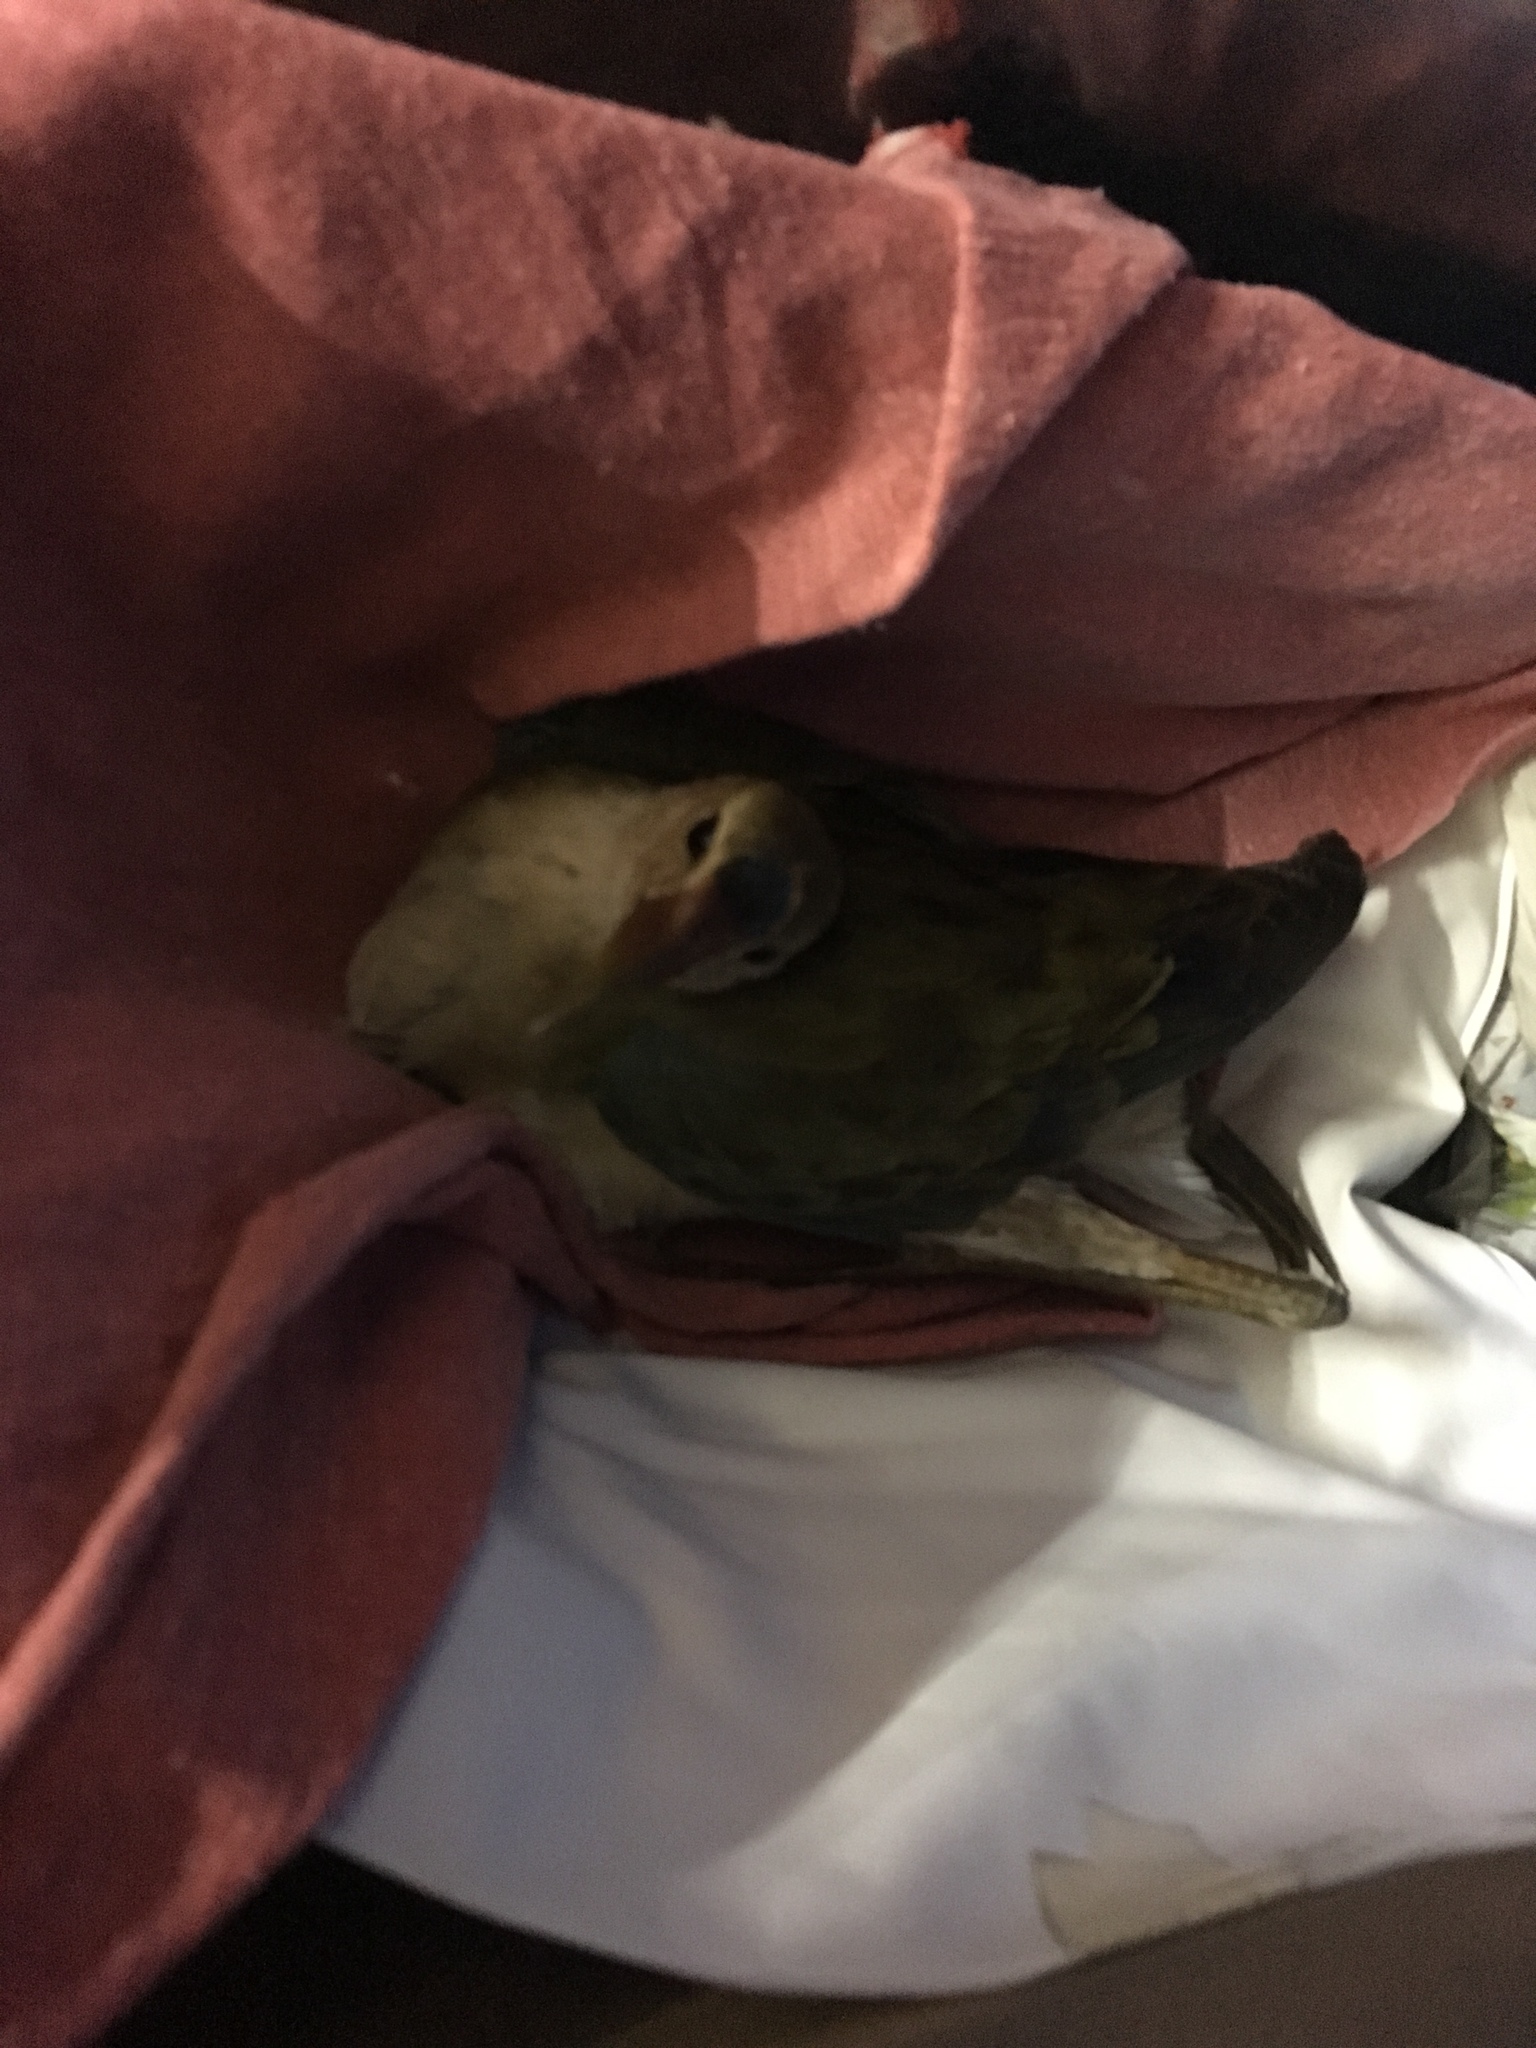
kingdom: Animalia
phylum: Chordata
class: Aves
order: Gruiformes
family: Rallidae
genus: Porphyrio
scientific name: Porphyrio martinica
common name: Purple gallinule
